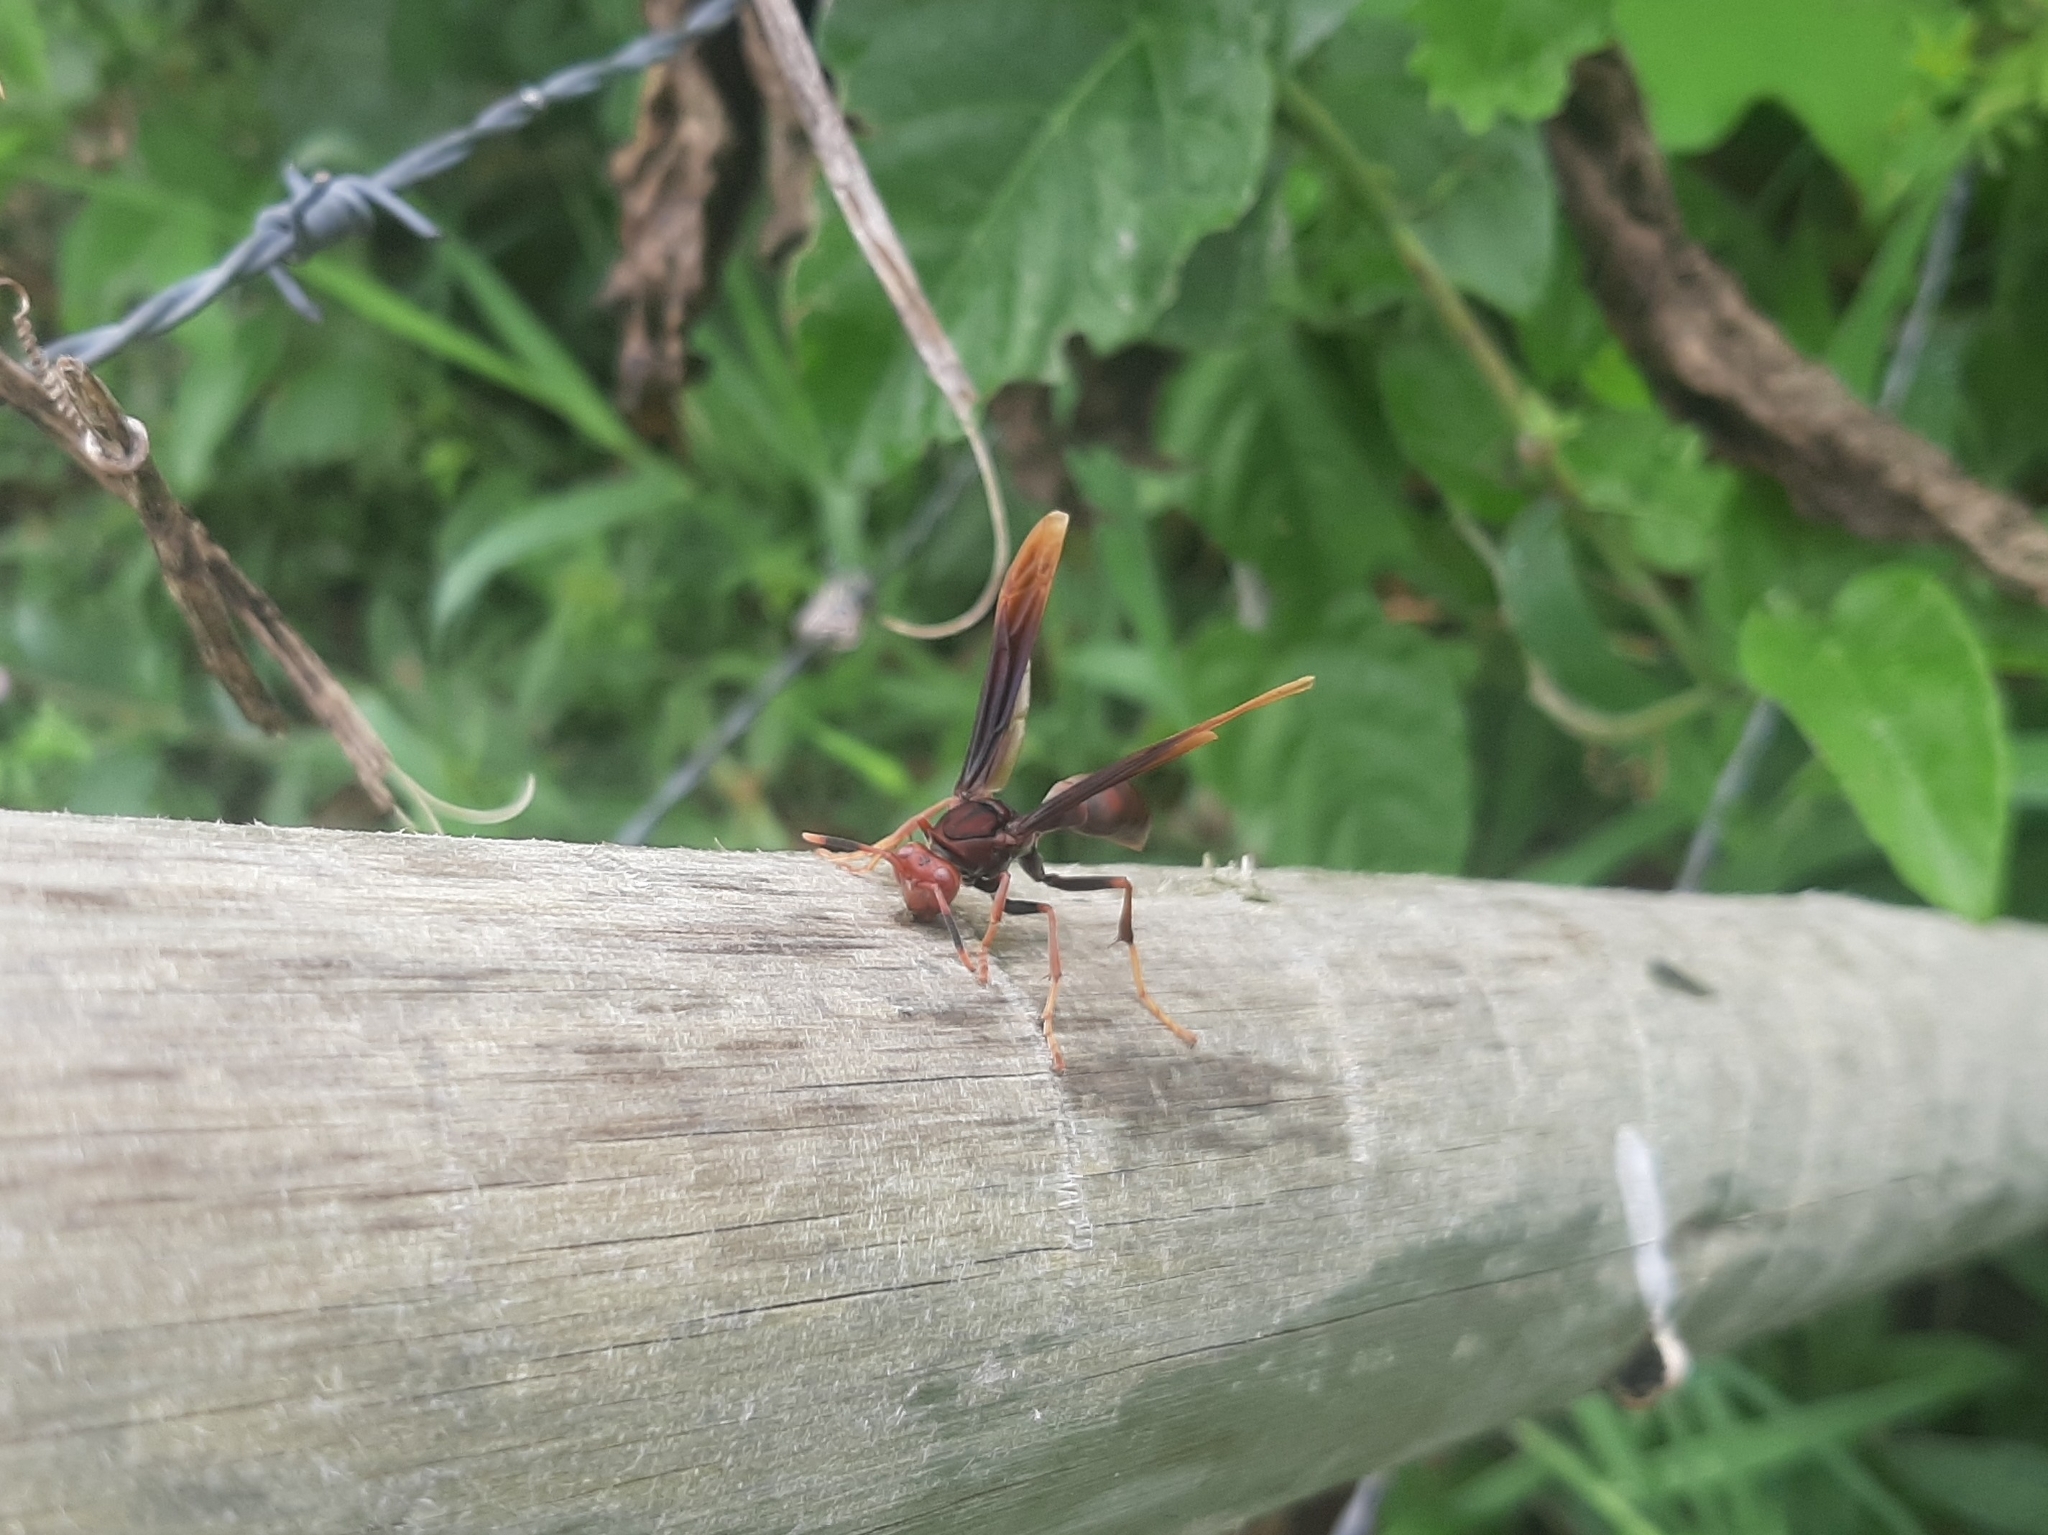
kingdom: Animalia
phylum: Arthropoda
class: Insecta
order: Hymenoptera
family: Eumenidae
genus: Polistes
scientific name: Polistes lanio
